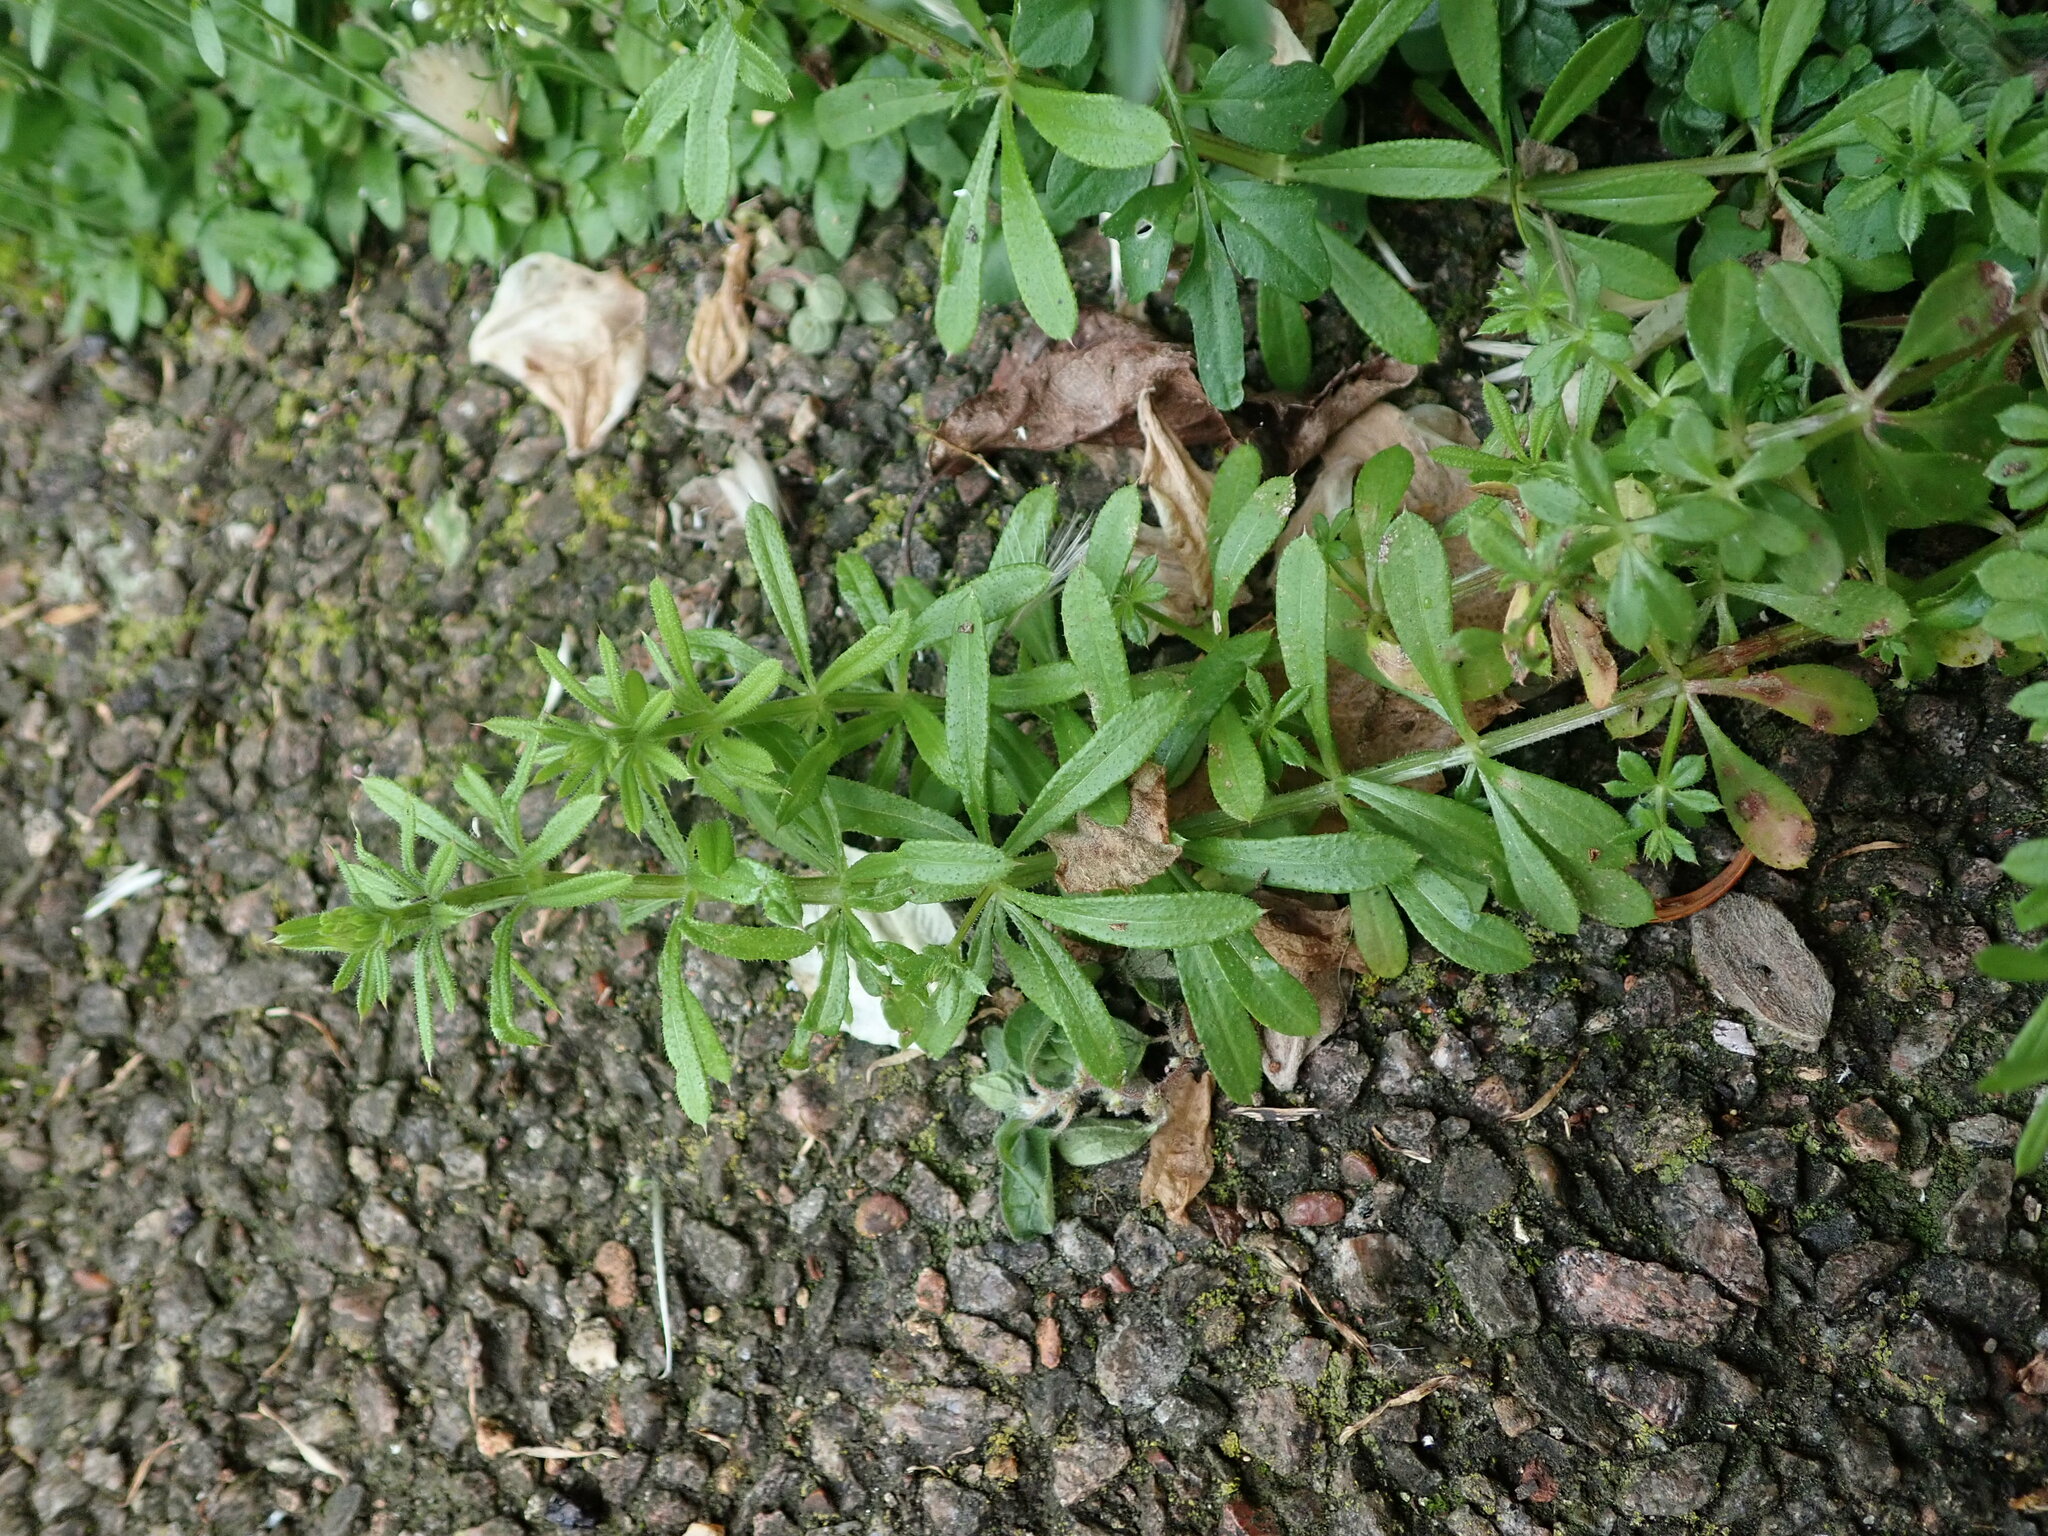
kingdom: Plantae
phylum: Tracheophyta
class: Magnoliopsida
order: Gentianales
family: Rubiaceae
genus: Galium
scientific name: Galium aparine
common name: Cleavers
